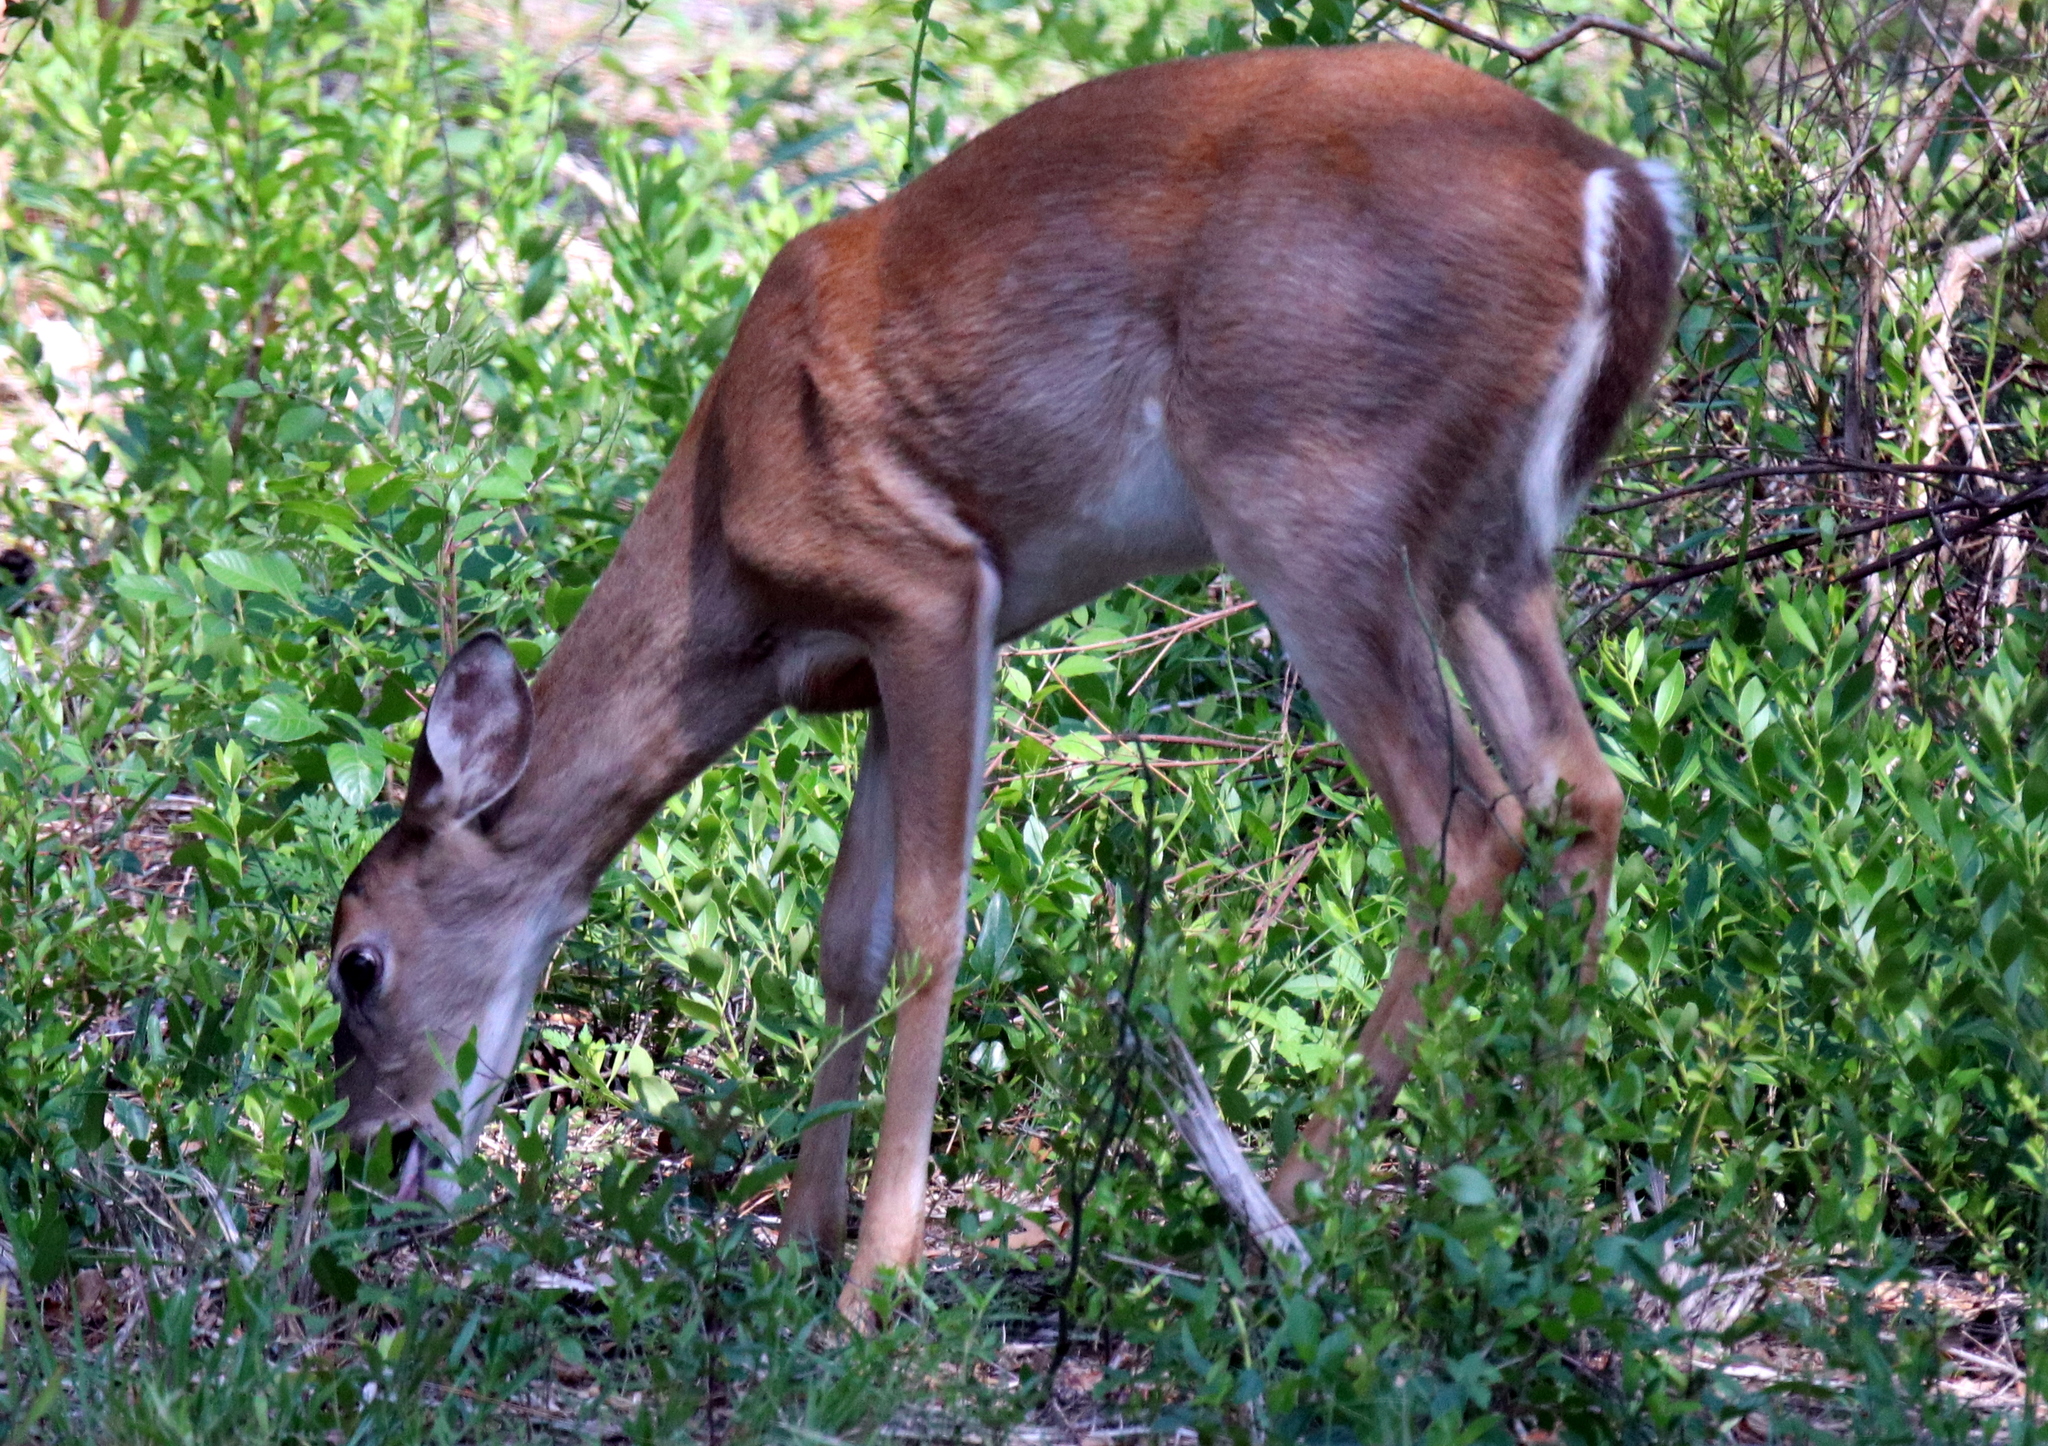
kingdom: Animalia
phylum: Chordata
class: Mammalia
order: Artiodactyla
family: Cervidae
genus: Odocoileus
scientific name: Odocoileus virginianus
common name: White-tailed deer
